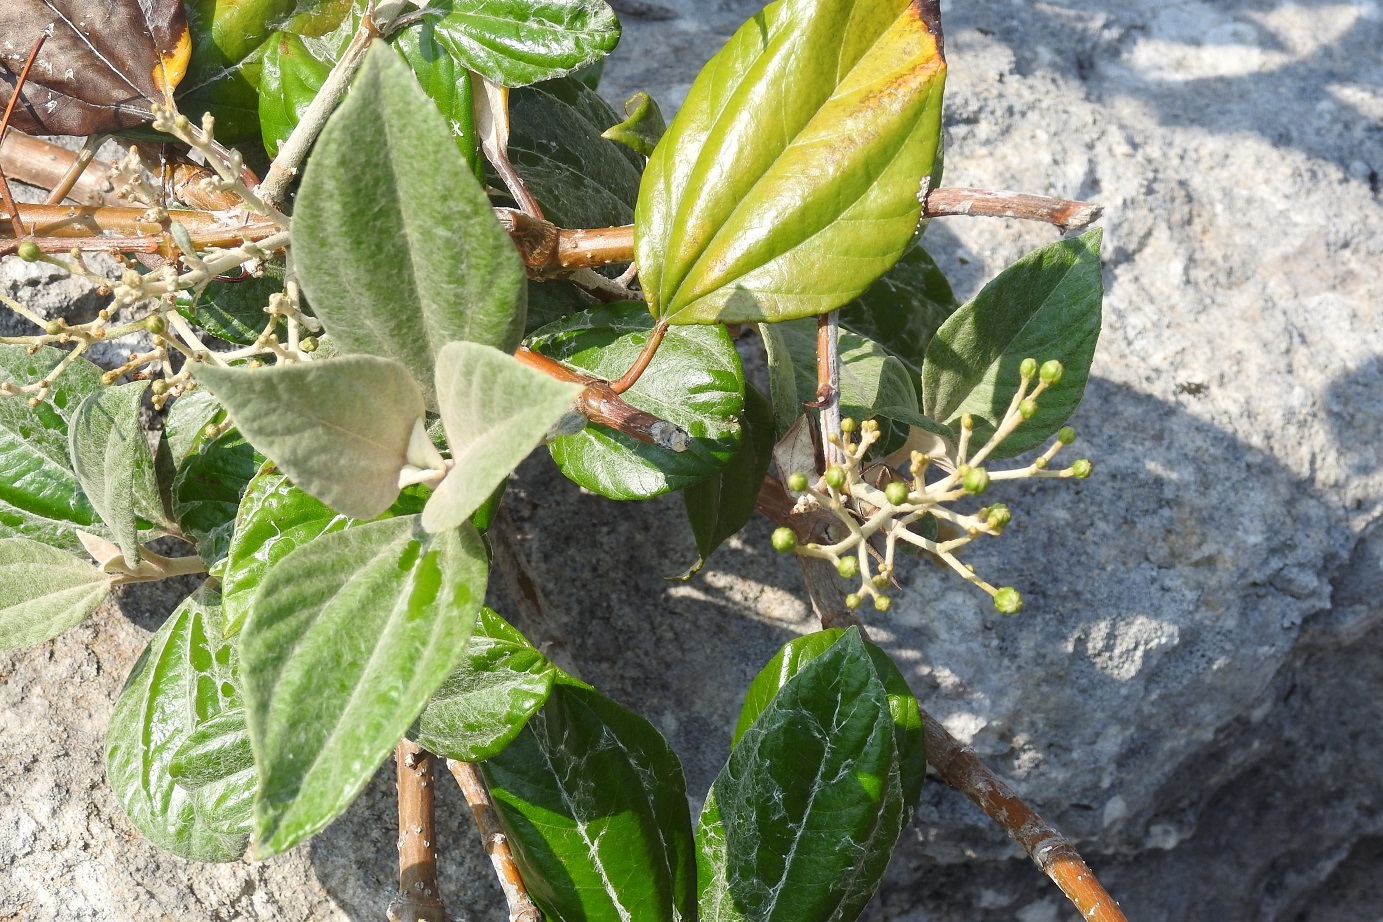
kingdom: Plantae
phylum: Tracheophyta
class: Magnoliopsida
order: Asterales
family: Asteraceae
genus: Sinclairia
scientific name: Sinclairia discolor
